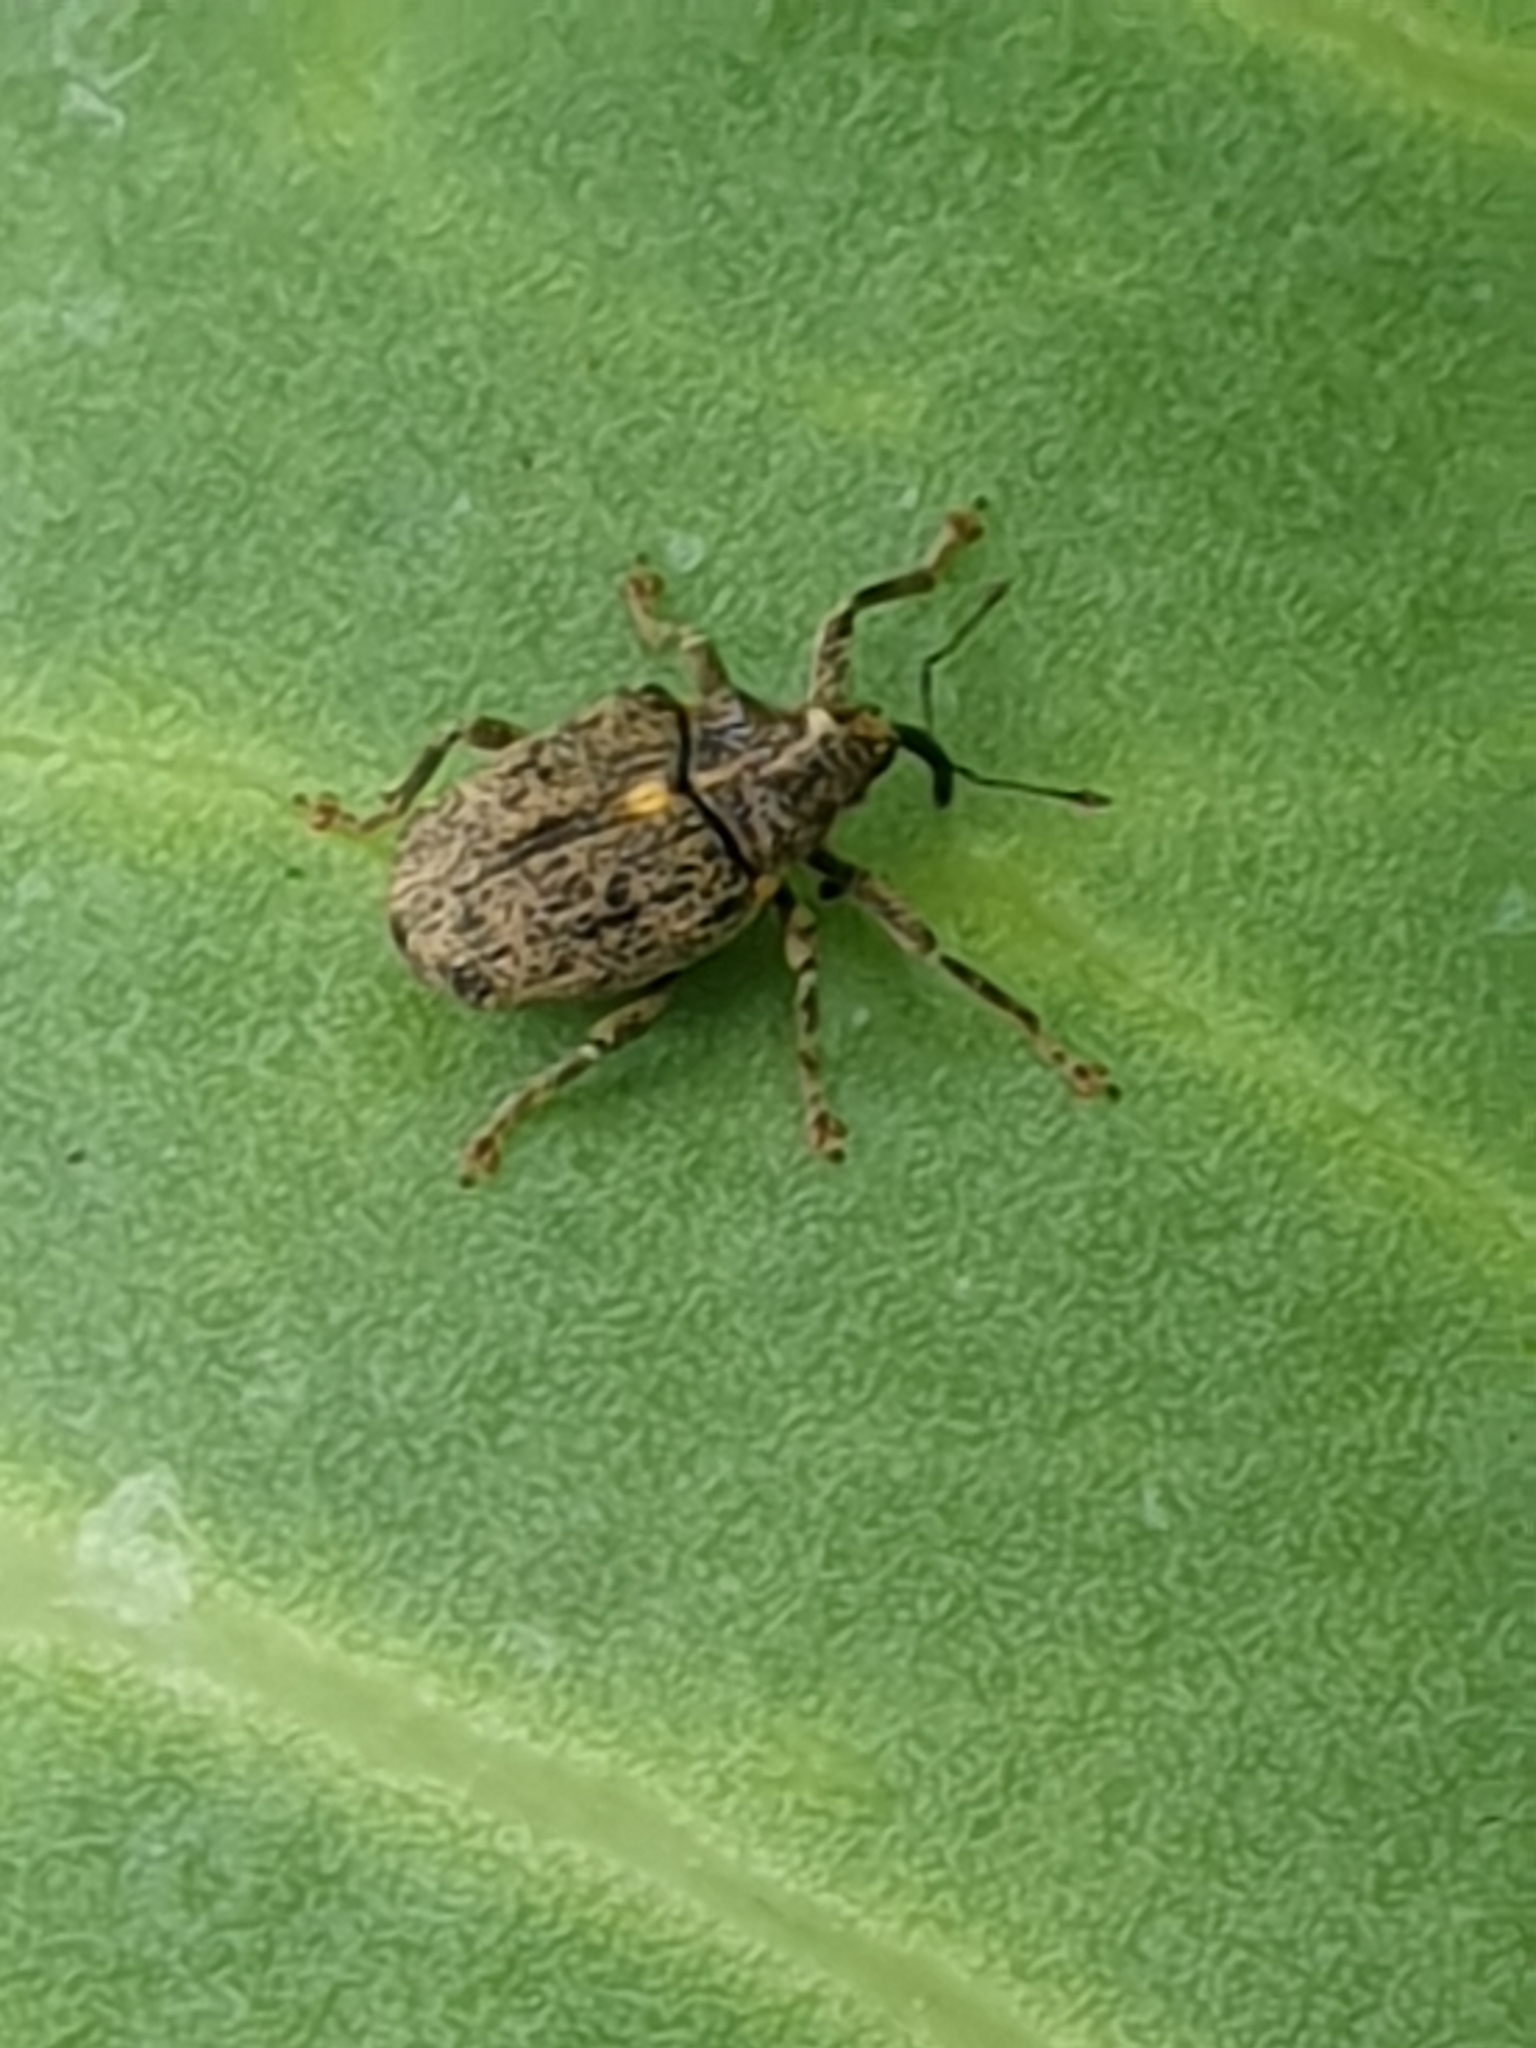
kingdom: Animalia
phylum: Arthropoda
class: Insecta
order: Coleoptera
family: Curculionidae
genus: Ceutorhynchus
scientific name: Ceutorhynchus pallidactylus
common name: Cabbage stem weavil
